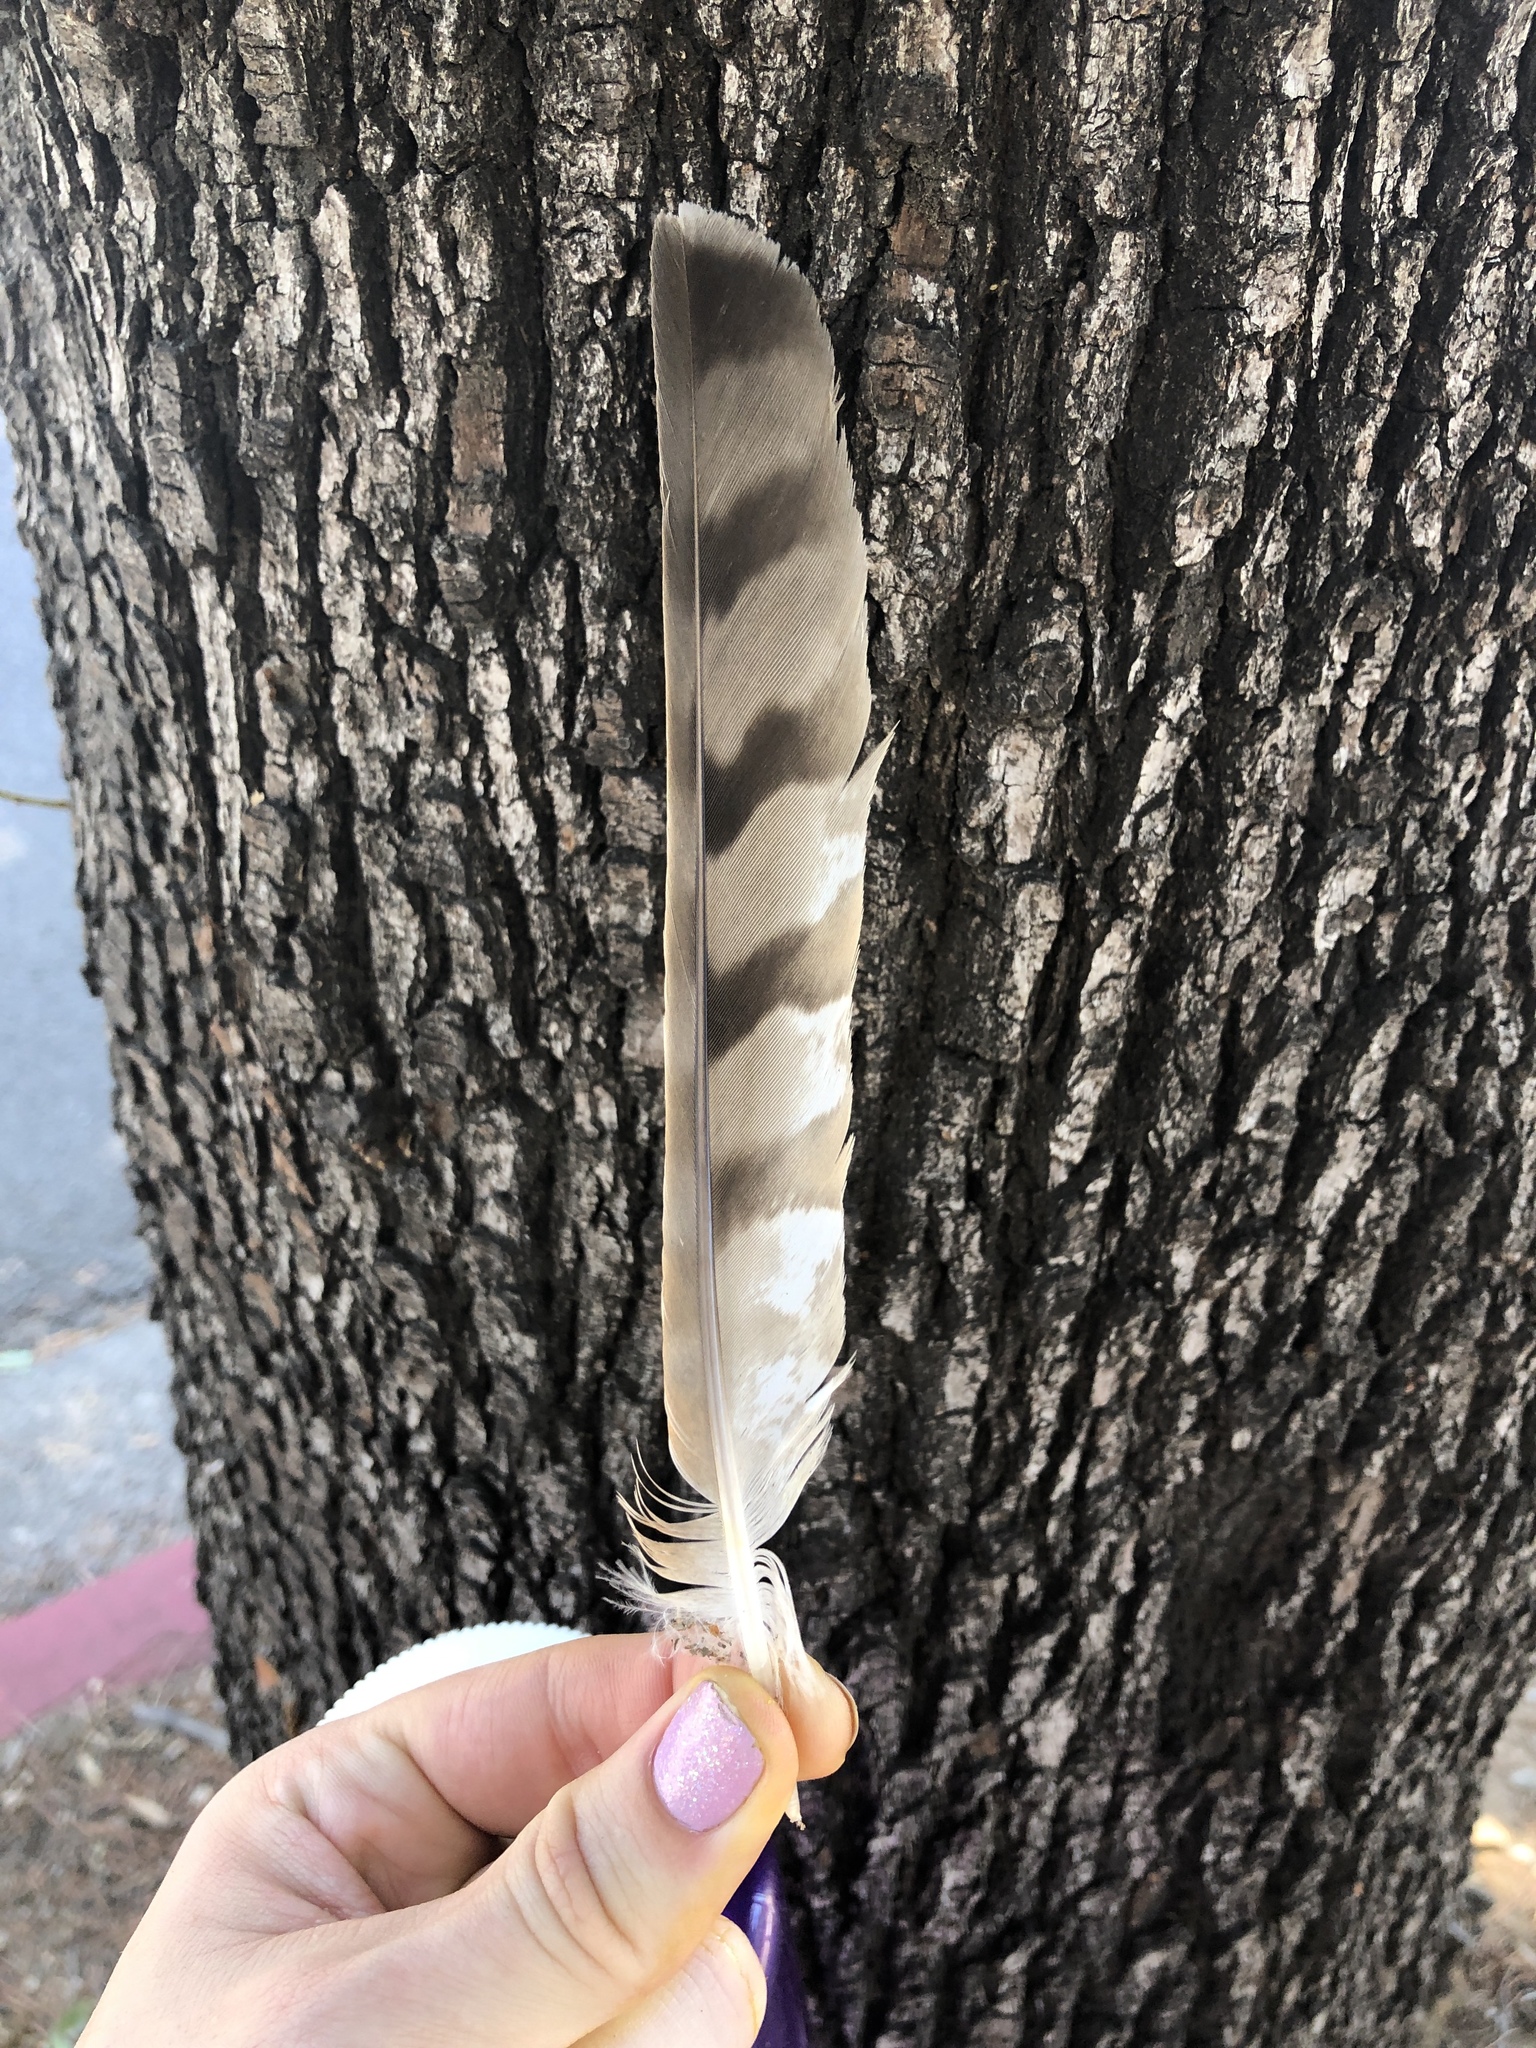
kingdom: Animalia
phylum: Chordata
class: Aves
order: Accipitriformes
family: Accipitridae
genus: Accipiter
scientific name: Accipiter cooperii
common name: Cooper's hawk
